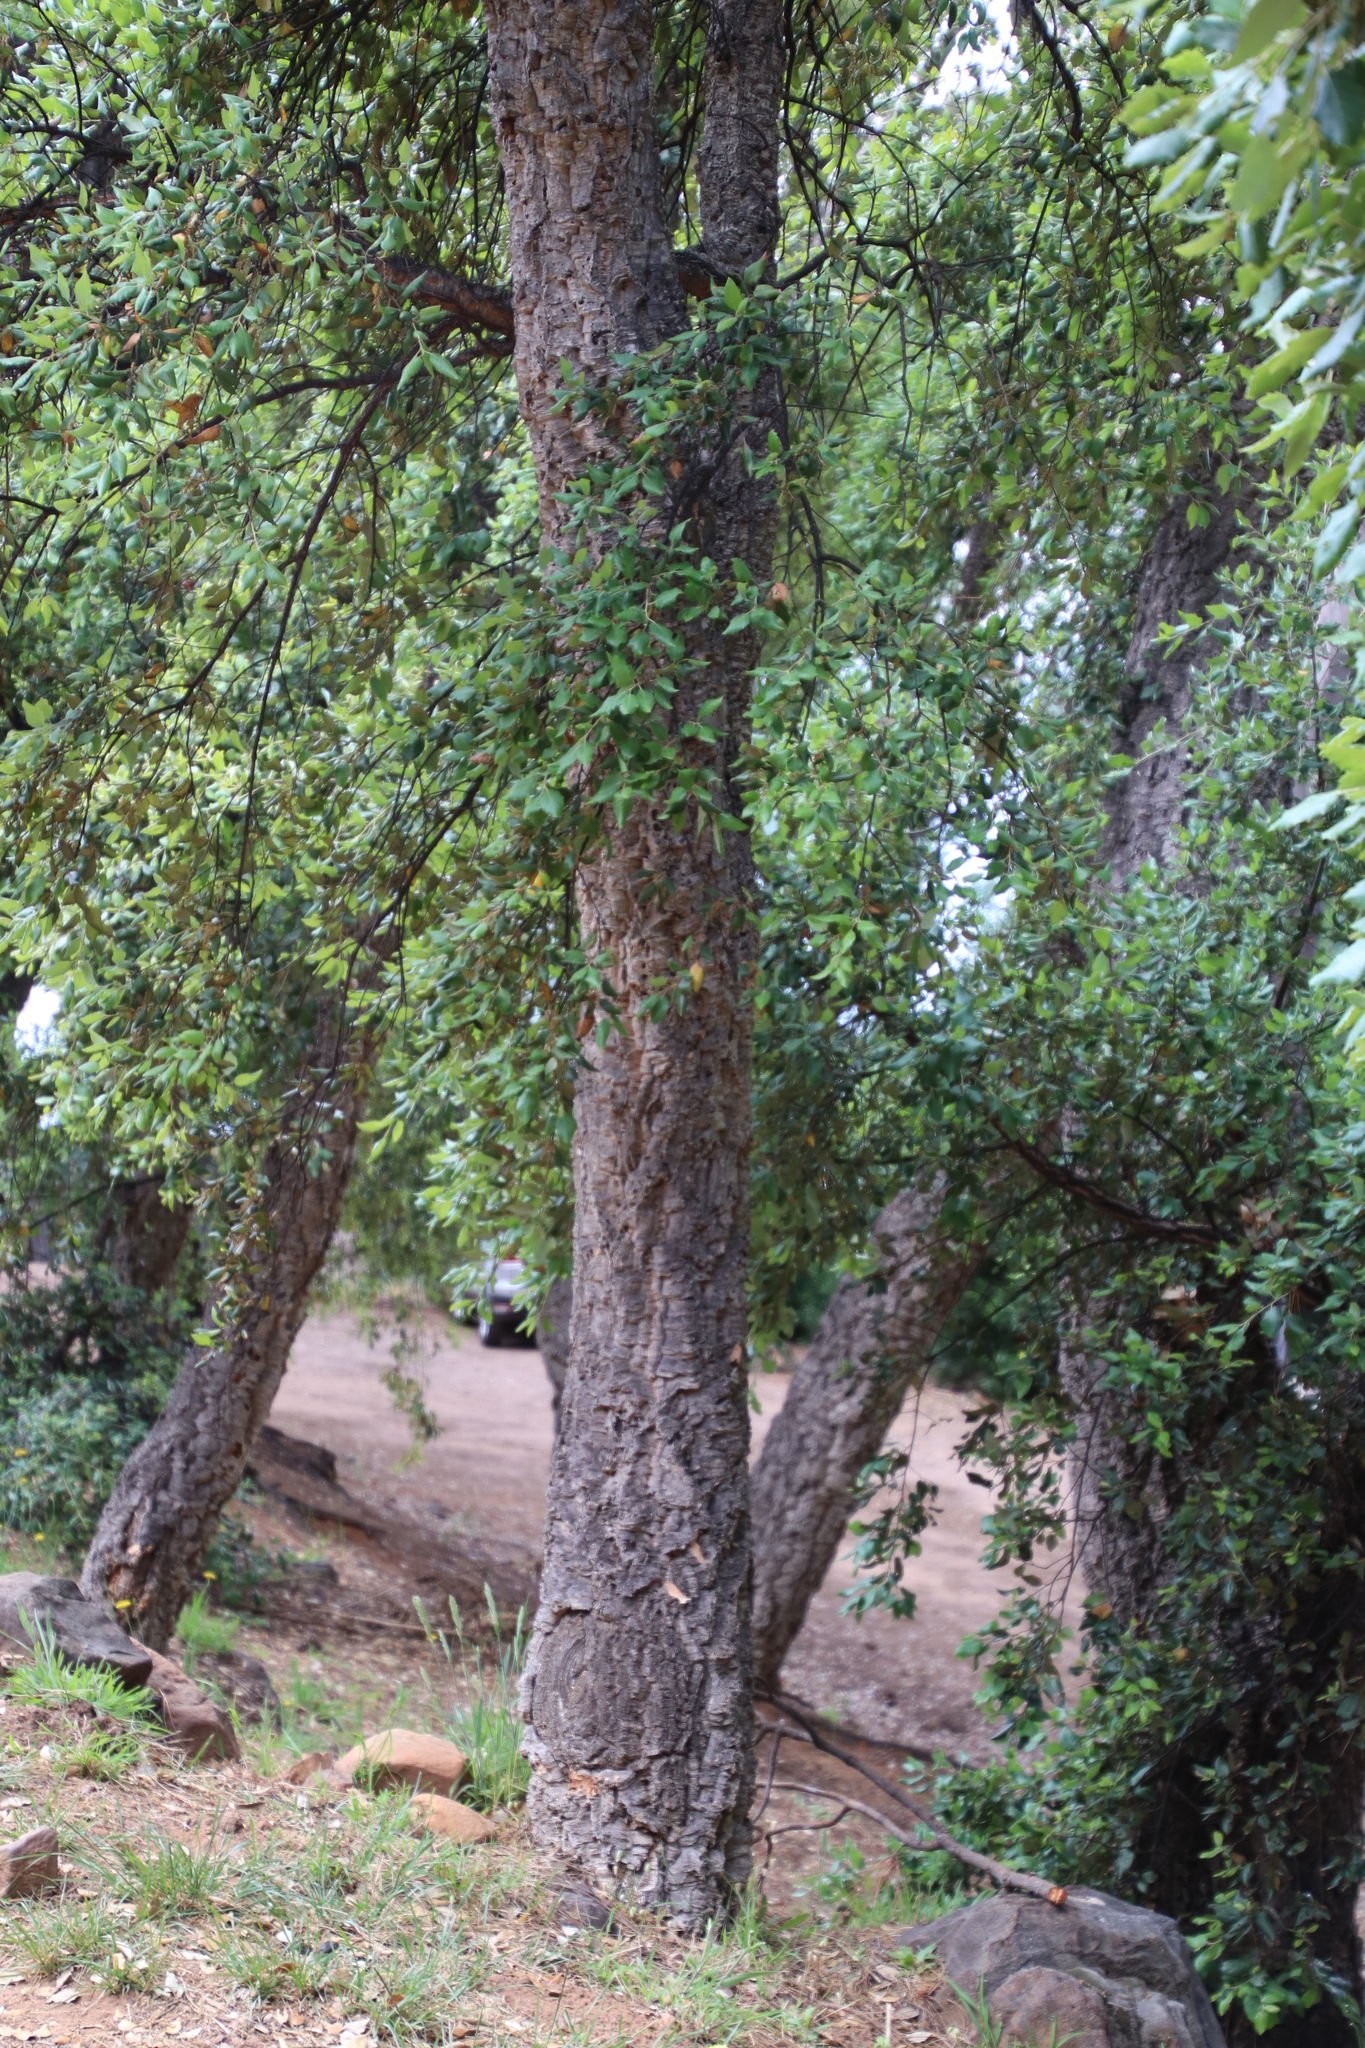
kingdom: Plantae
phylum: Tracheophyta
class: Magnoliopsida
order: Fagales
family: Fagaceae
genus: Quercus
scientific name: Quercus suber
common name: Cork oak
